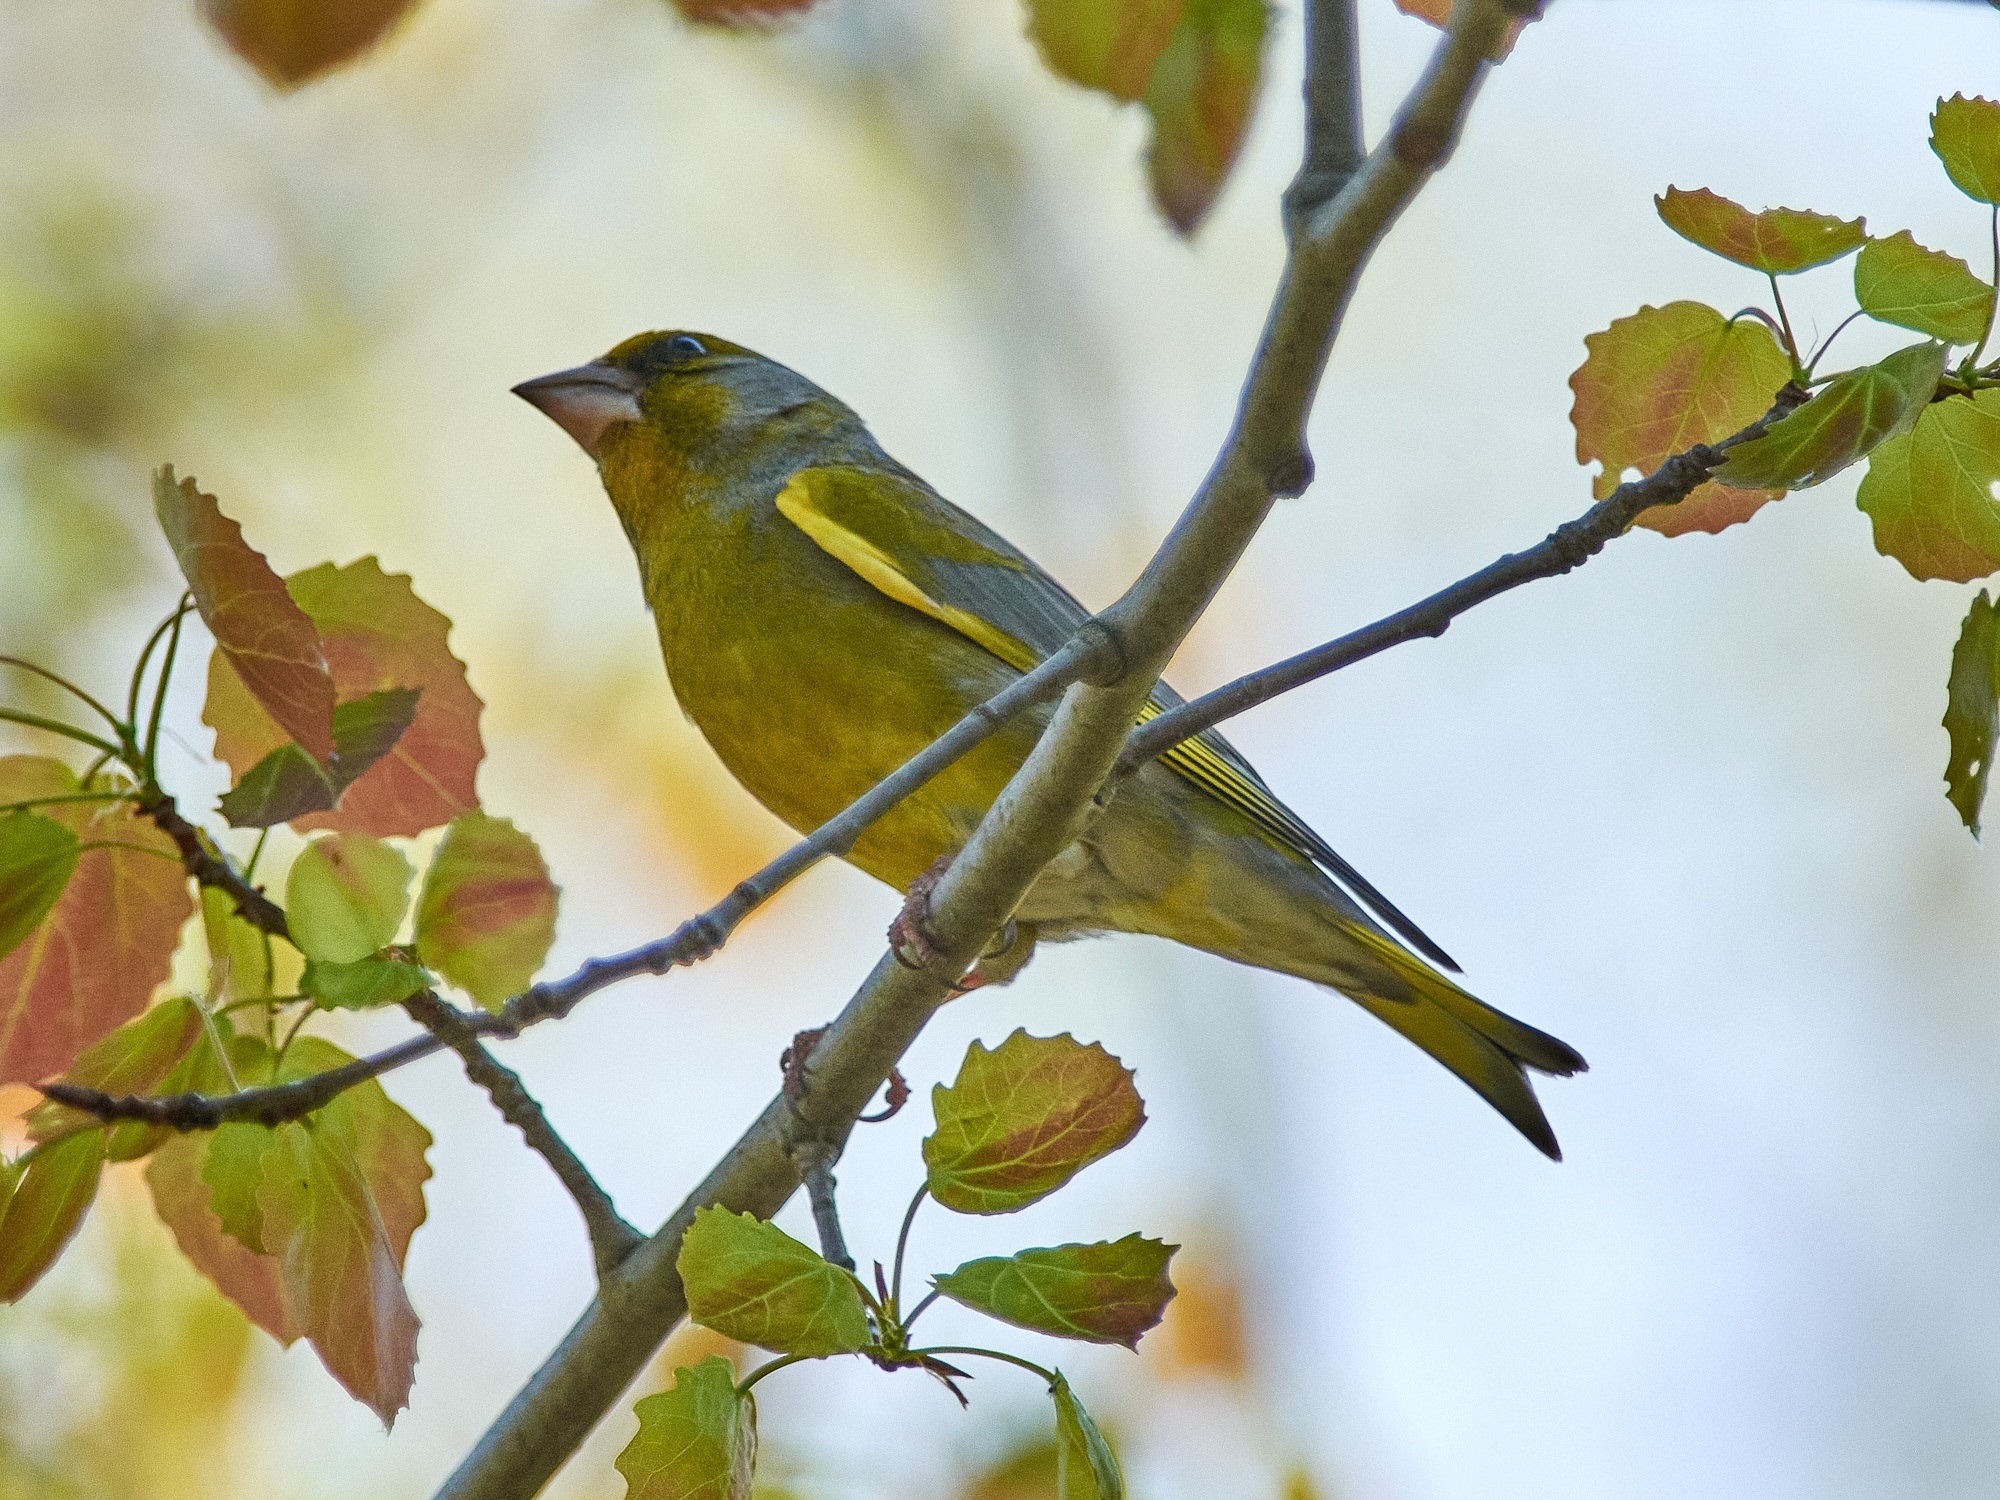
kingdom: Plantae
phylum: Tracheophyta
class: Liliopsida
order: Poales
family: Poaceae
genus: Chloris
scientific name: Chloris chloris
